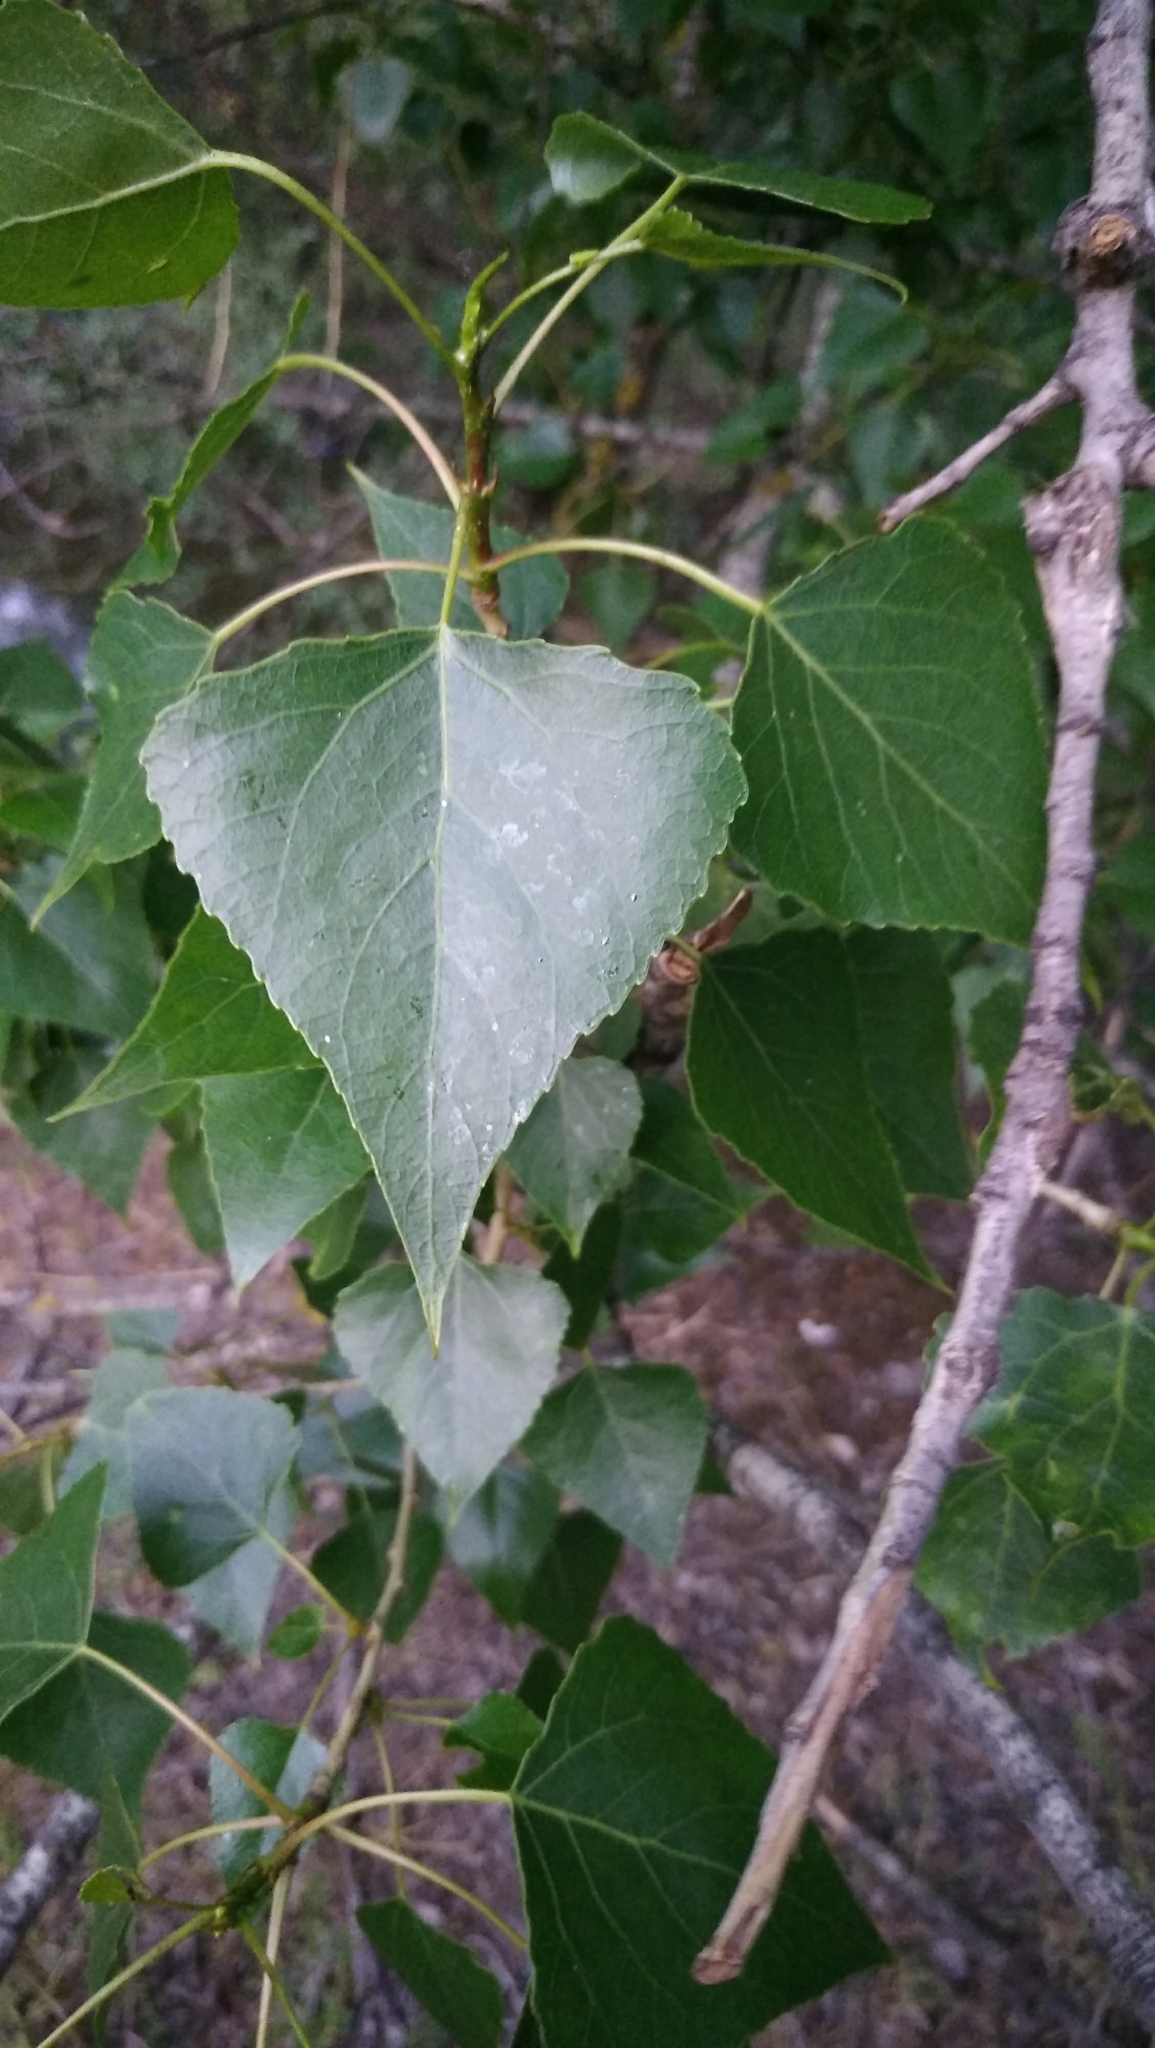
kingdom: Plantae
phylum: Tracheophyta
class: Magnoliopsida
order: Malpighiales
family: Salicaceae
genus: Populus
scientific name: Populus nigra
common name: Black poplar
